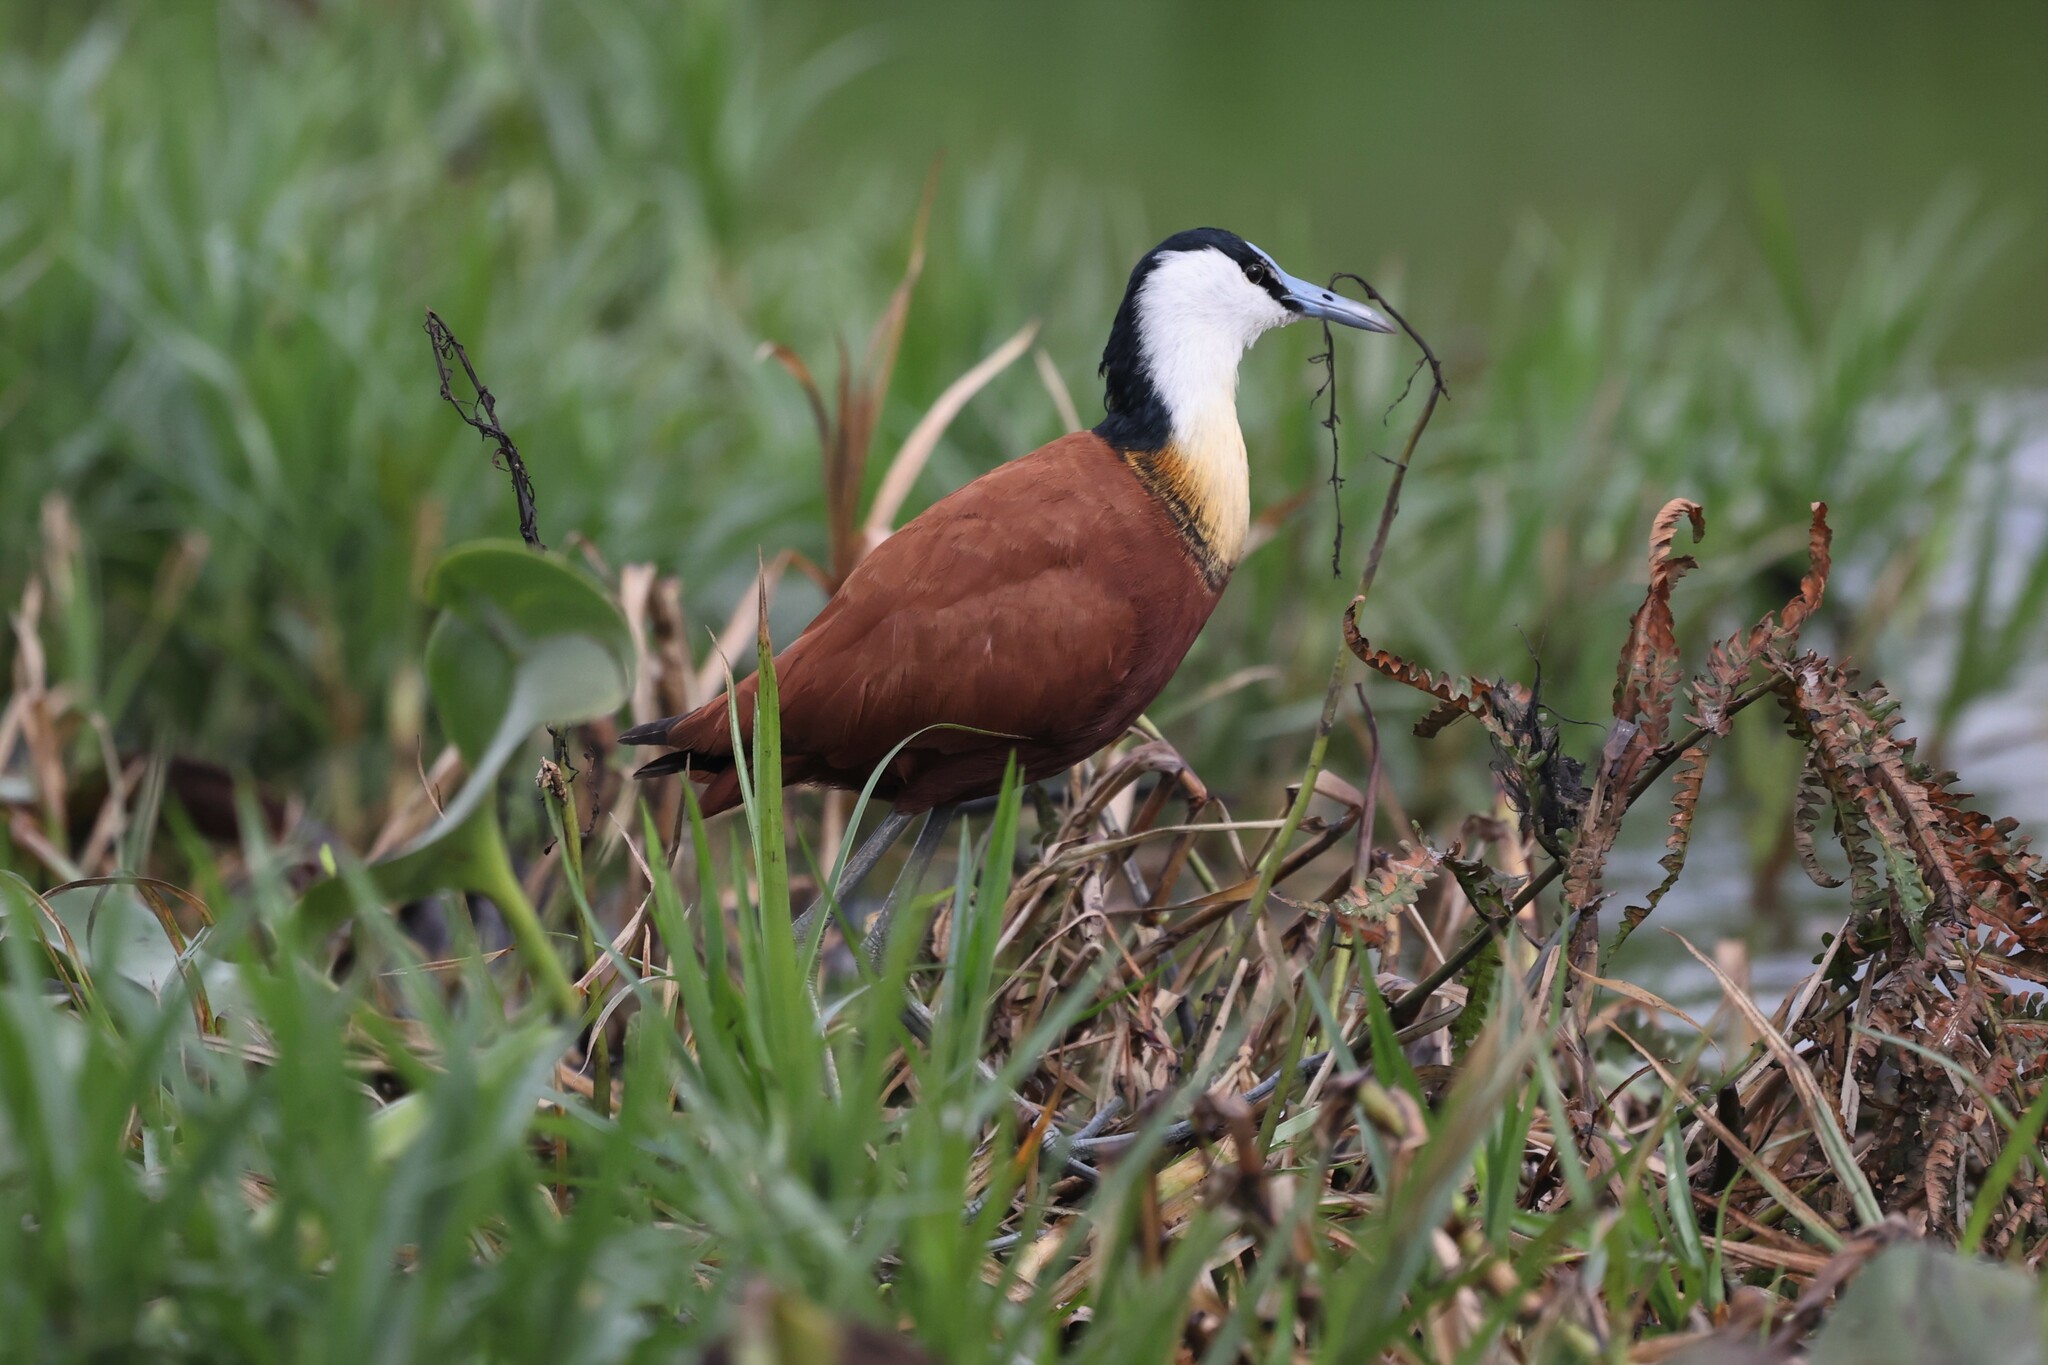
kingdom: Animalia
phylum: Chordata
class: Aves
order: Charadriiformes
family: Jacanidae
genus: Actophilornis
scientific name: Actophilornis africanus
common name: African jacana
